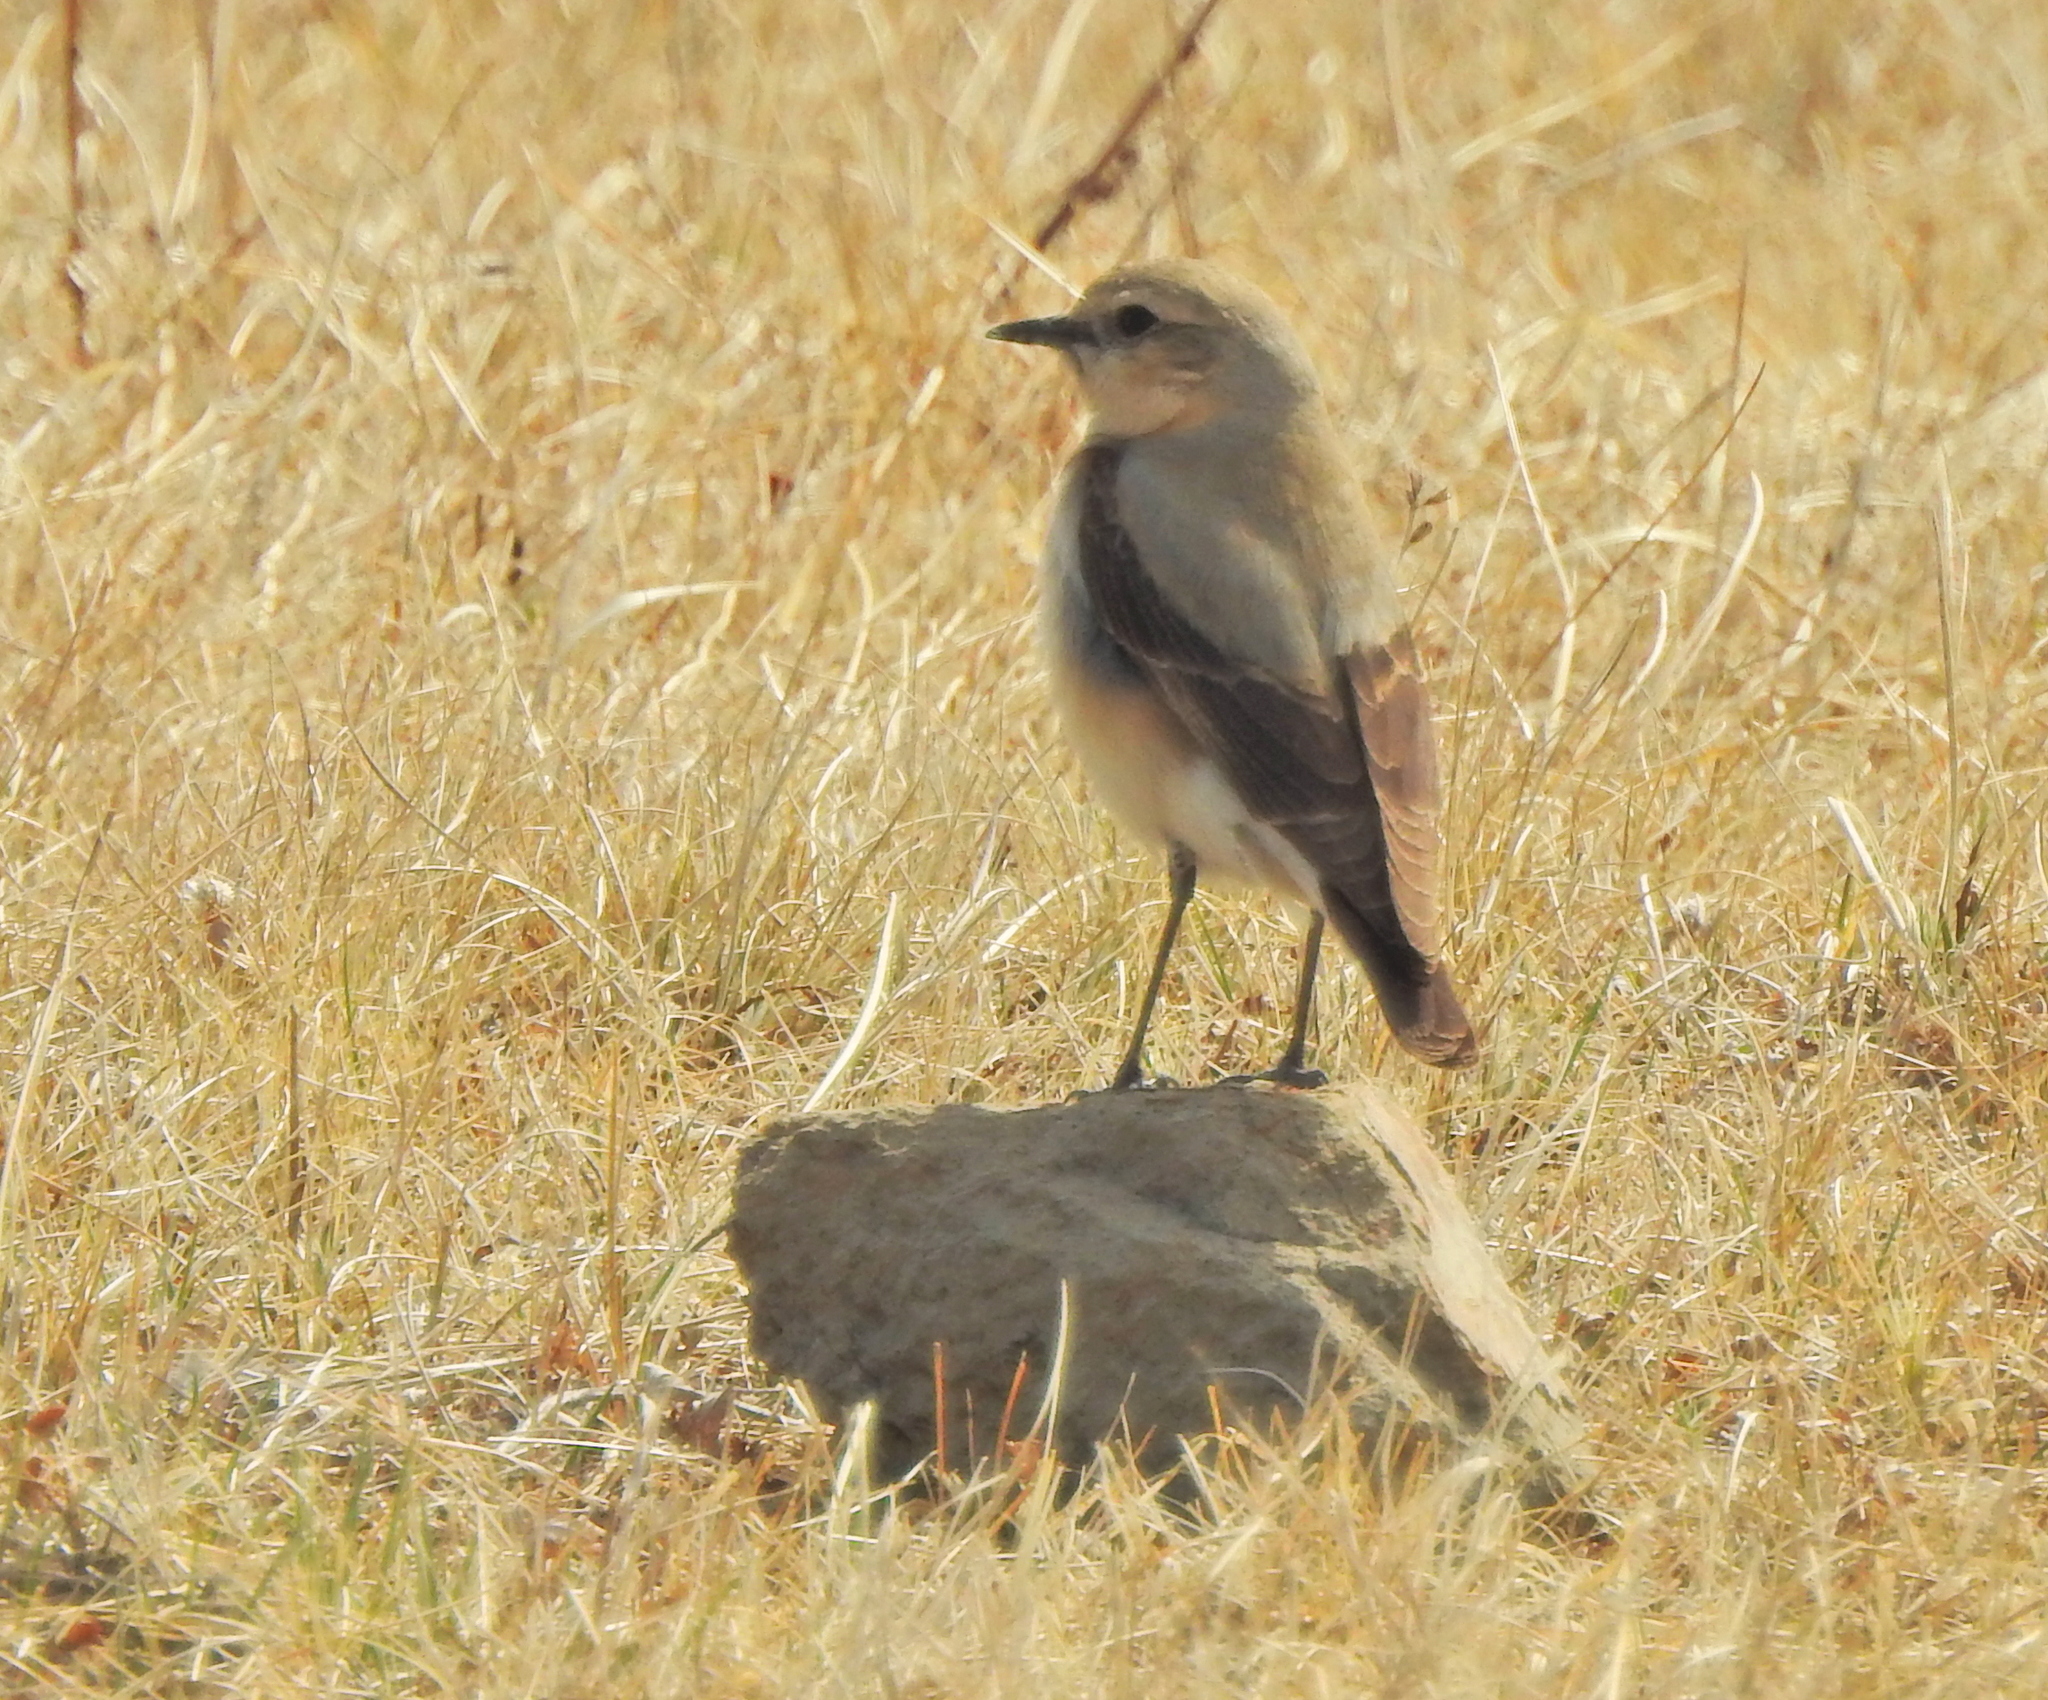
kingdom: Animalia
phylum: Chordata
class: Aves
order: Passeriformes
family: Muscicapidae
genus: Oenanthe
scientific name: Oenanthe oenanthe
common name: Northern wheatear
